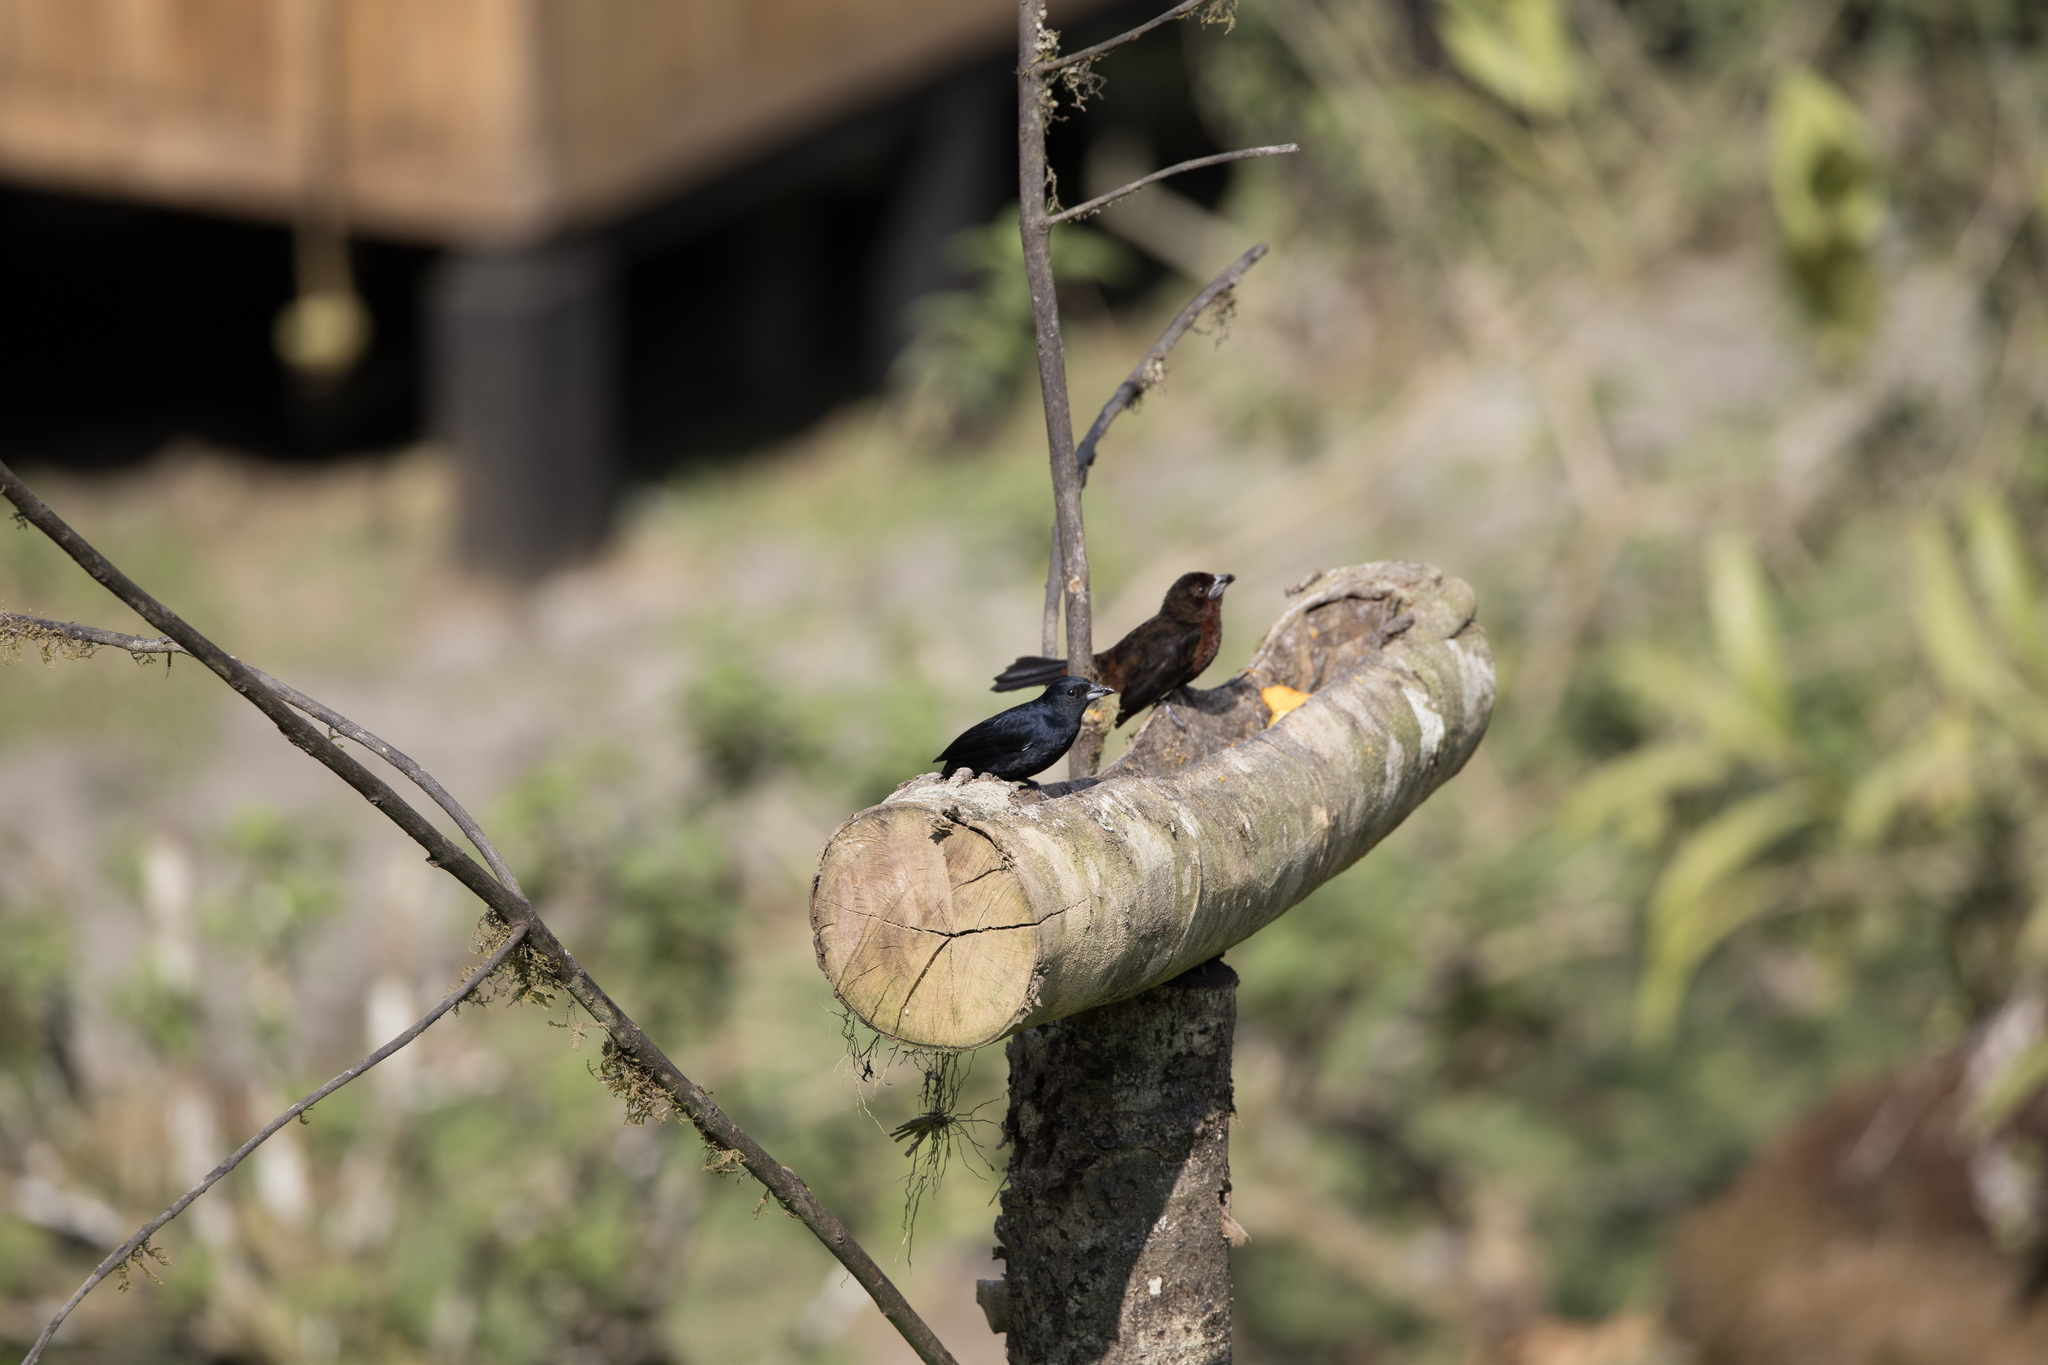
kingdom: Animalia
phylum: Chordata
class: Aves
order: Passeriformes
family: Thraupidae
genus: Tachyphonus
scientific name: Tachyphonus rufus
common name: White-lined tanager
